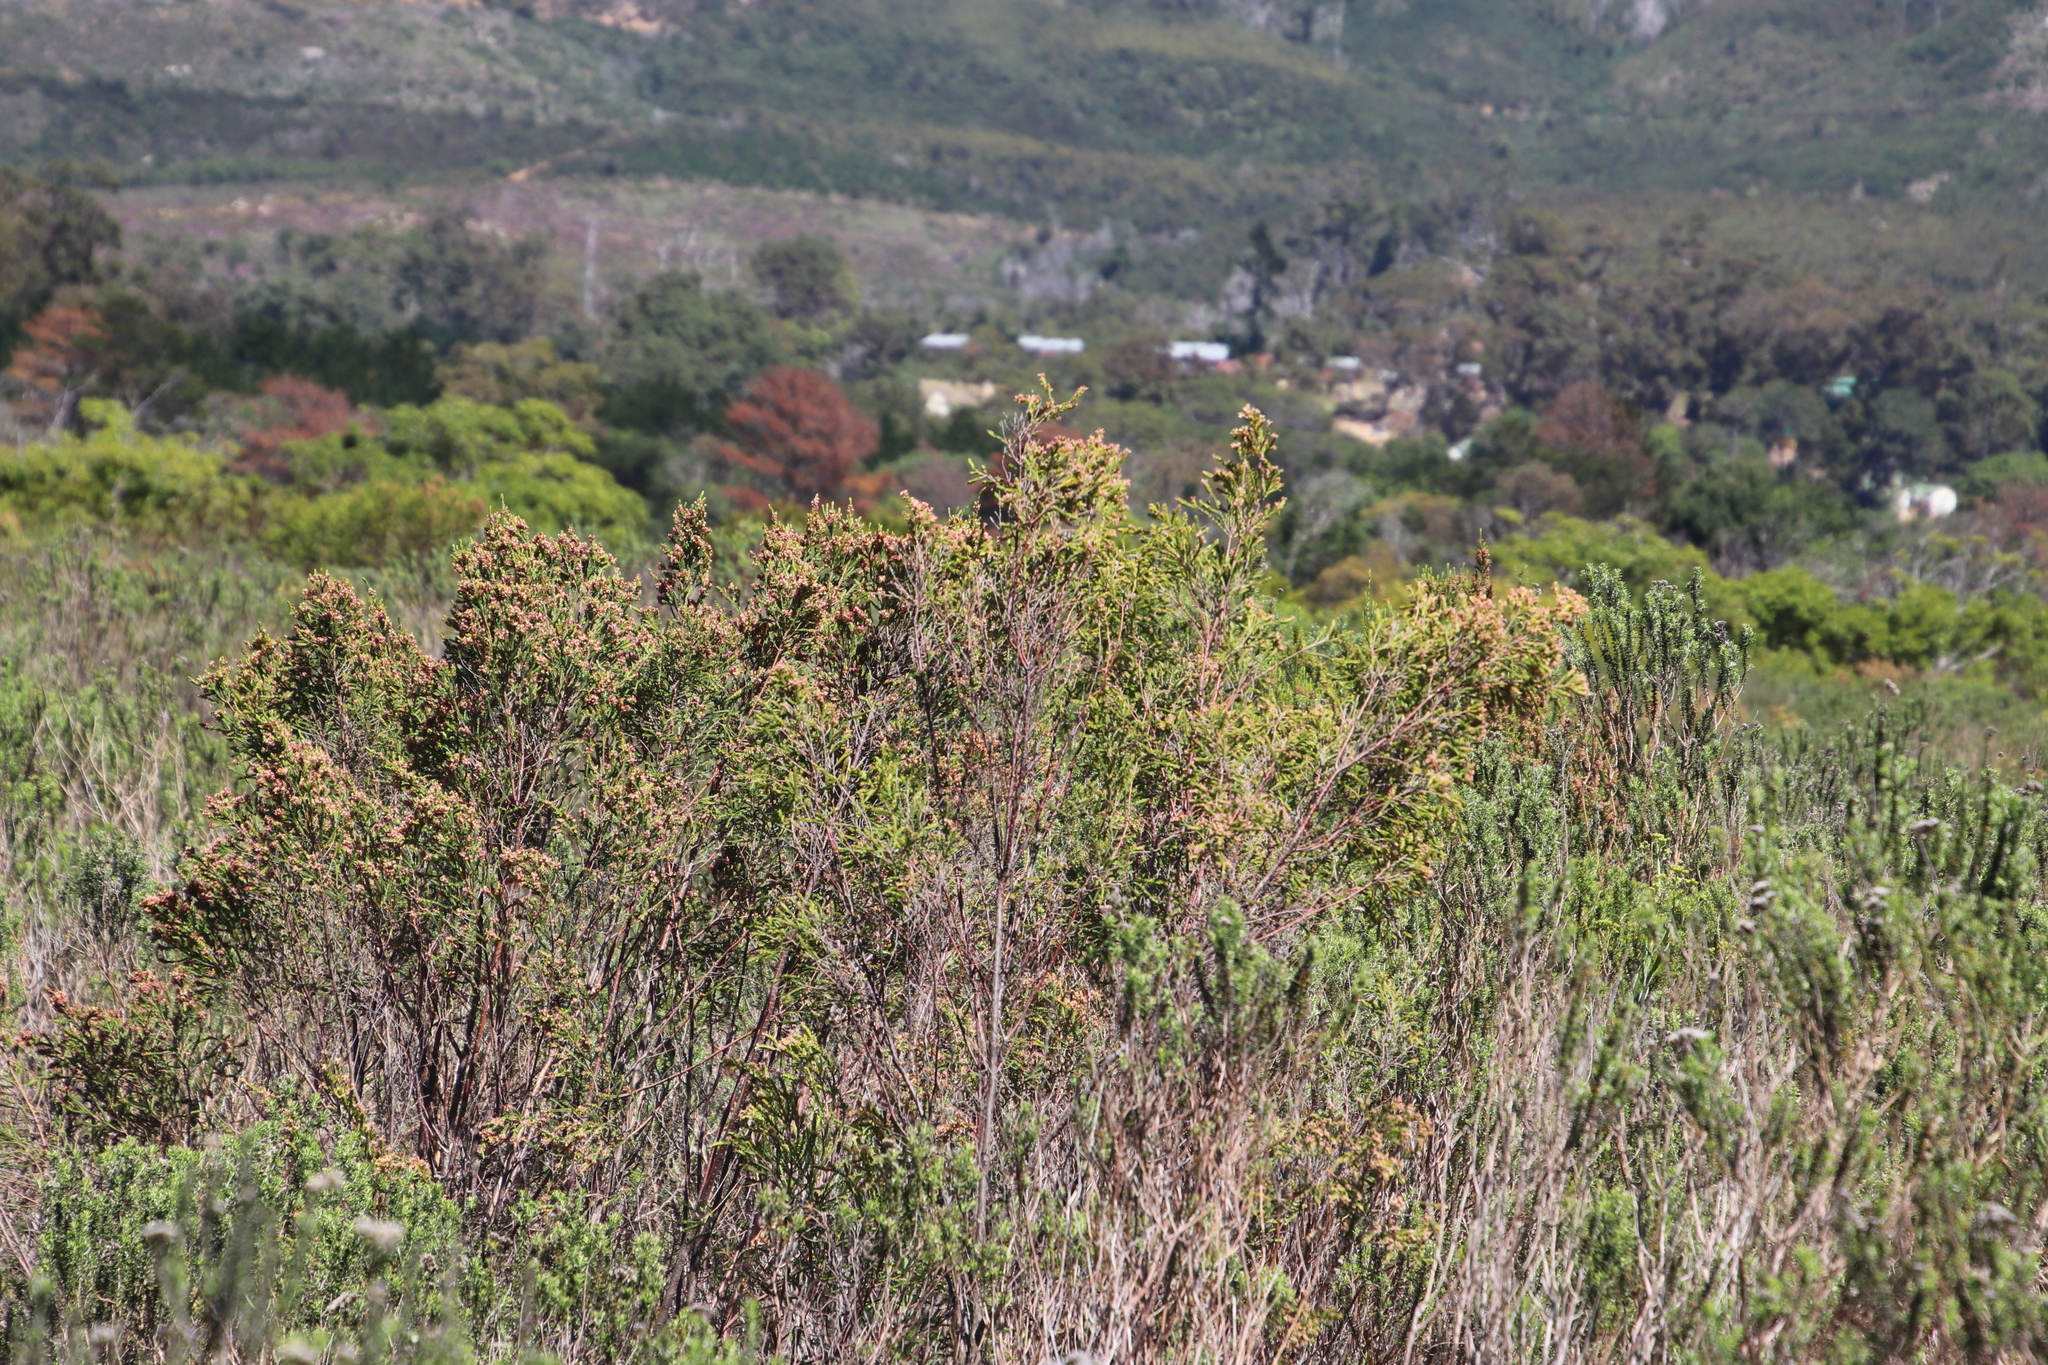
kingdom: Plantae
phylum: Tracheophyta
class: Magnoliopsida
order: Malvales
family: Thymelaeaceae
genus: Passerina
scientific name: Passerina corymbosa
